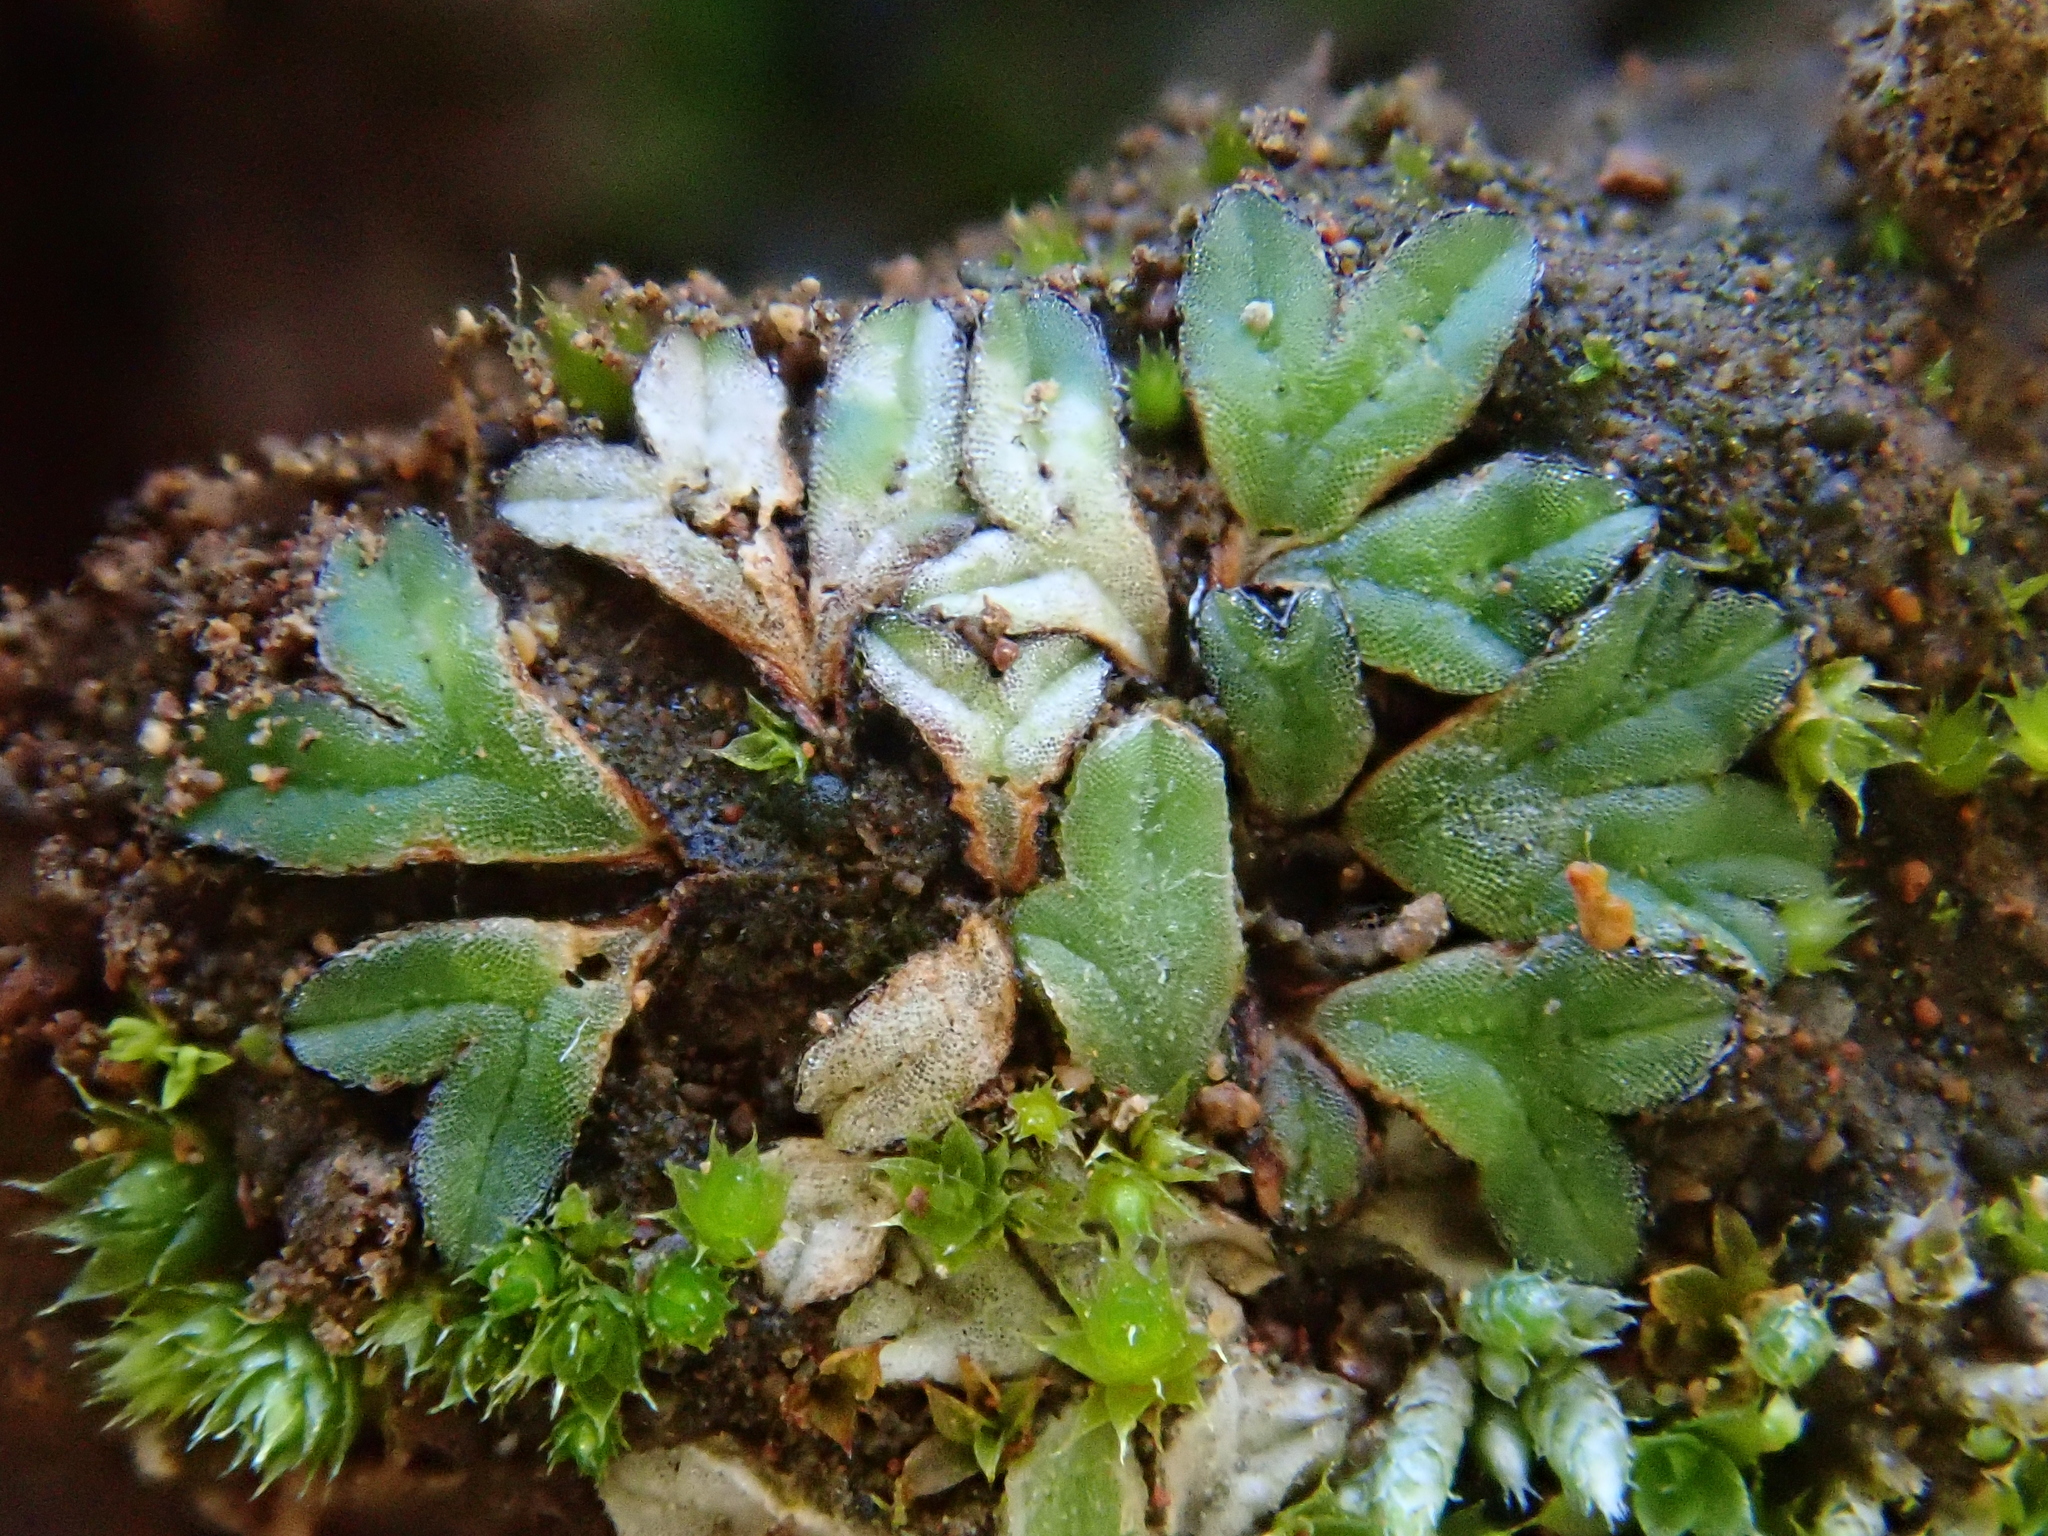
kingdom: Plantae
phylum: Marchantiophyta
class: Marchantiopsida
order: Marchantiales
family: Ricciaceae
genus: Riccia
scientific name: Riccia nigrella
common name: Black crystalwort
